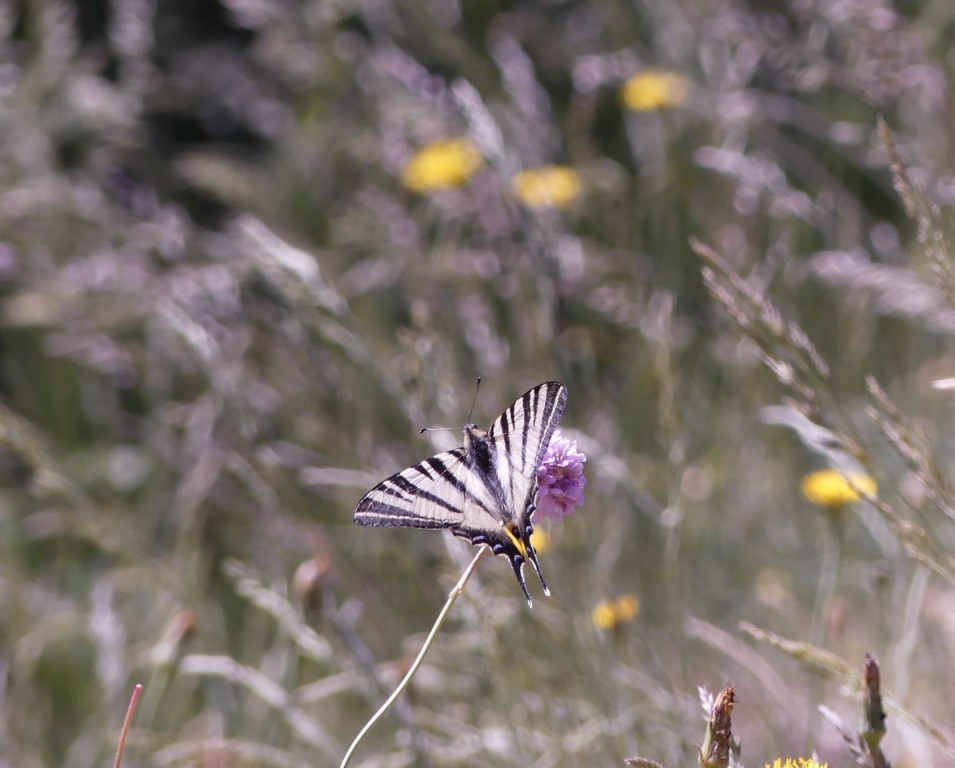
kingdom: Animalia
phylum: Arthropoda
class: Insecta
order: Lepidoptera
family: Papilionidae
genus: Iphiclides
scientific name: Iphiclides podalirius
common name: Scarce swallowtail
